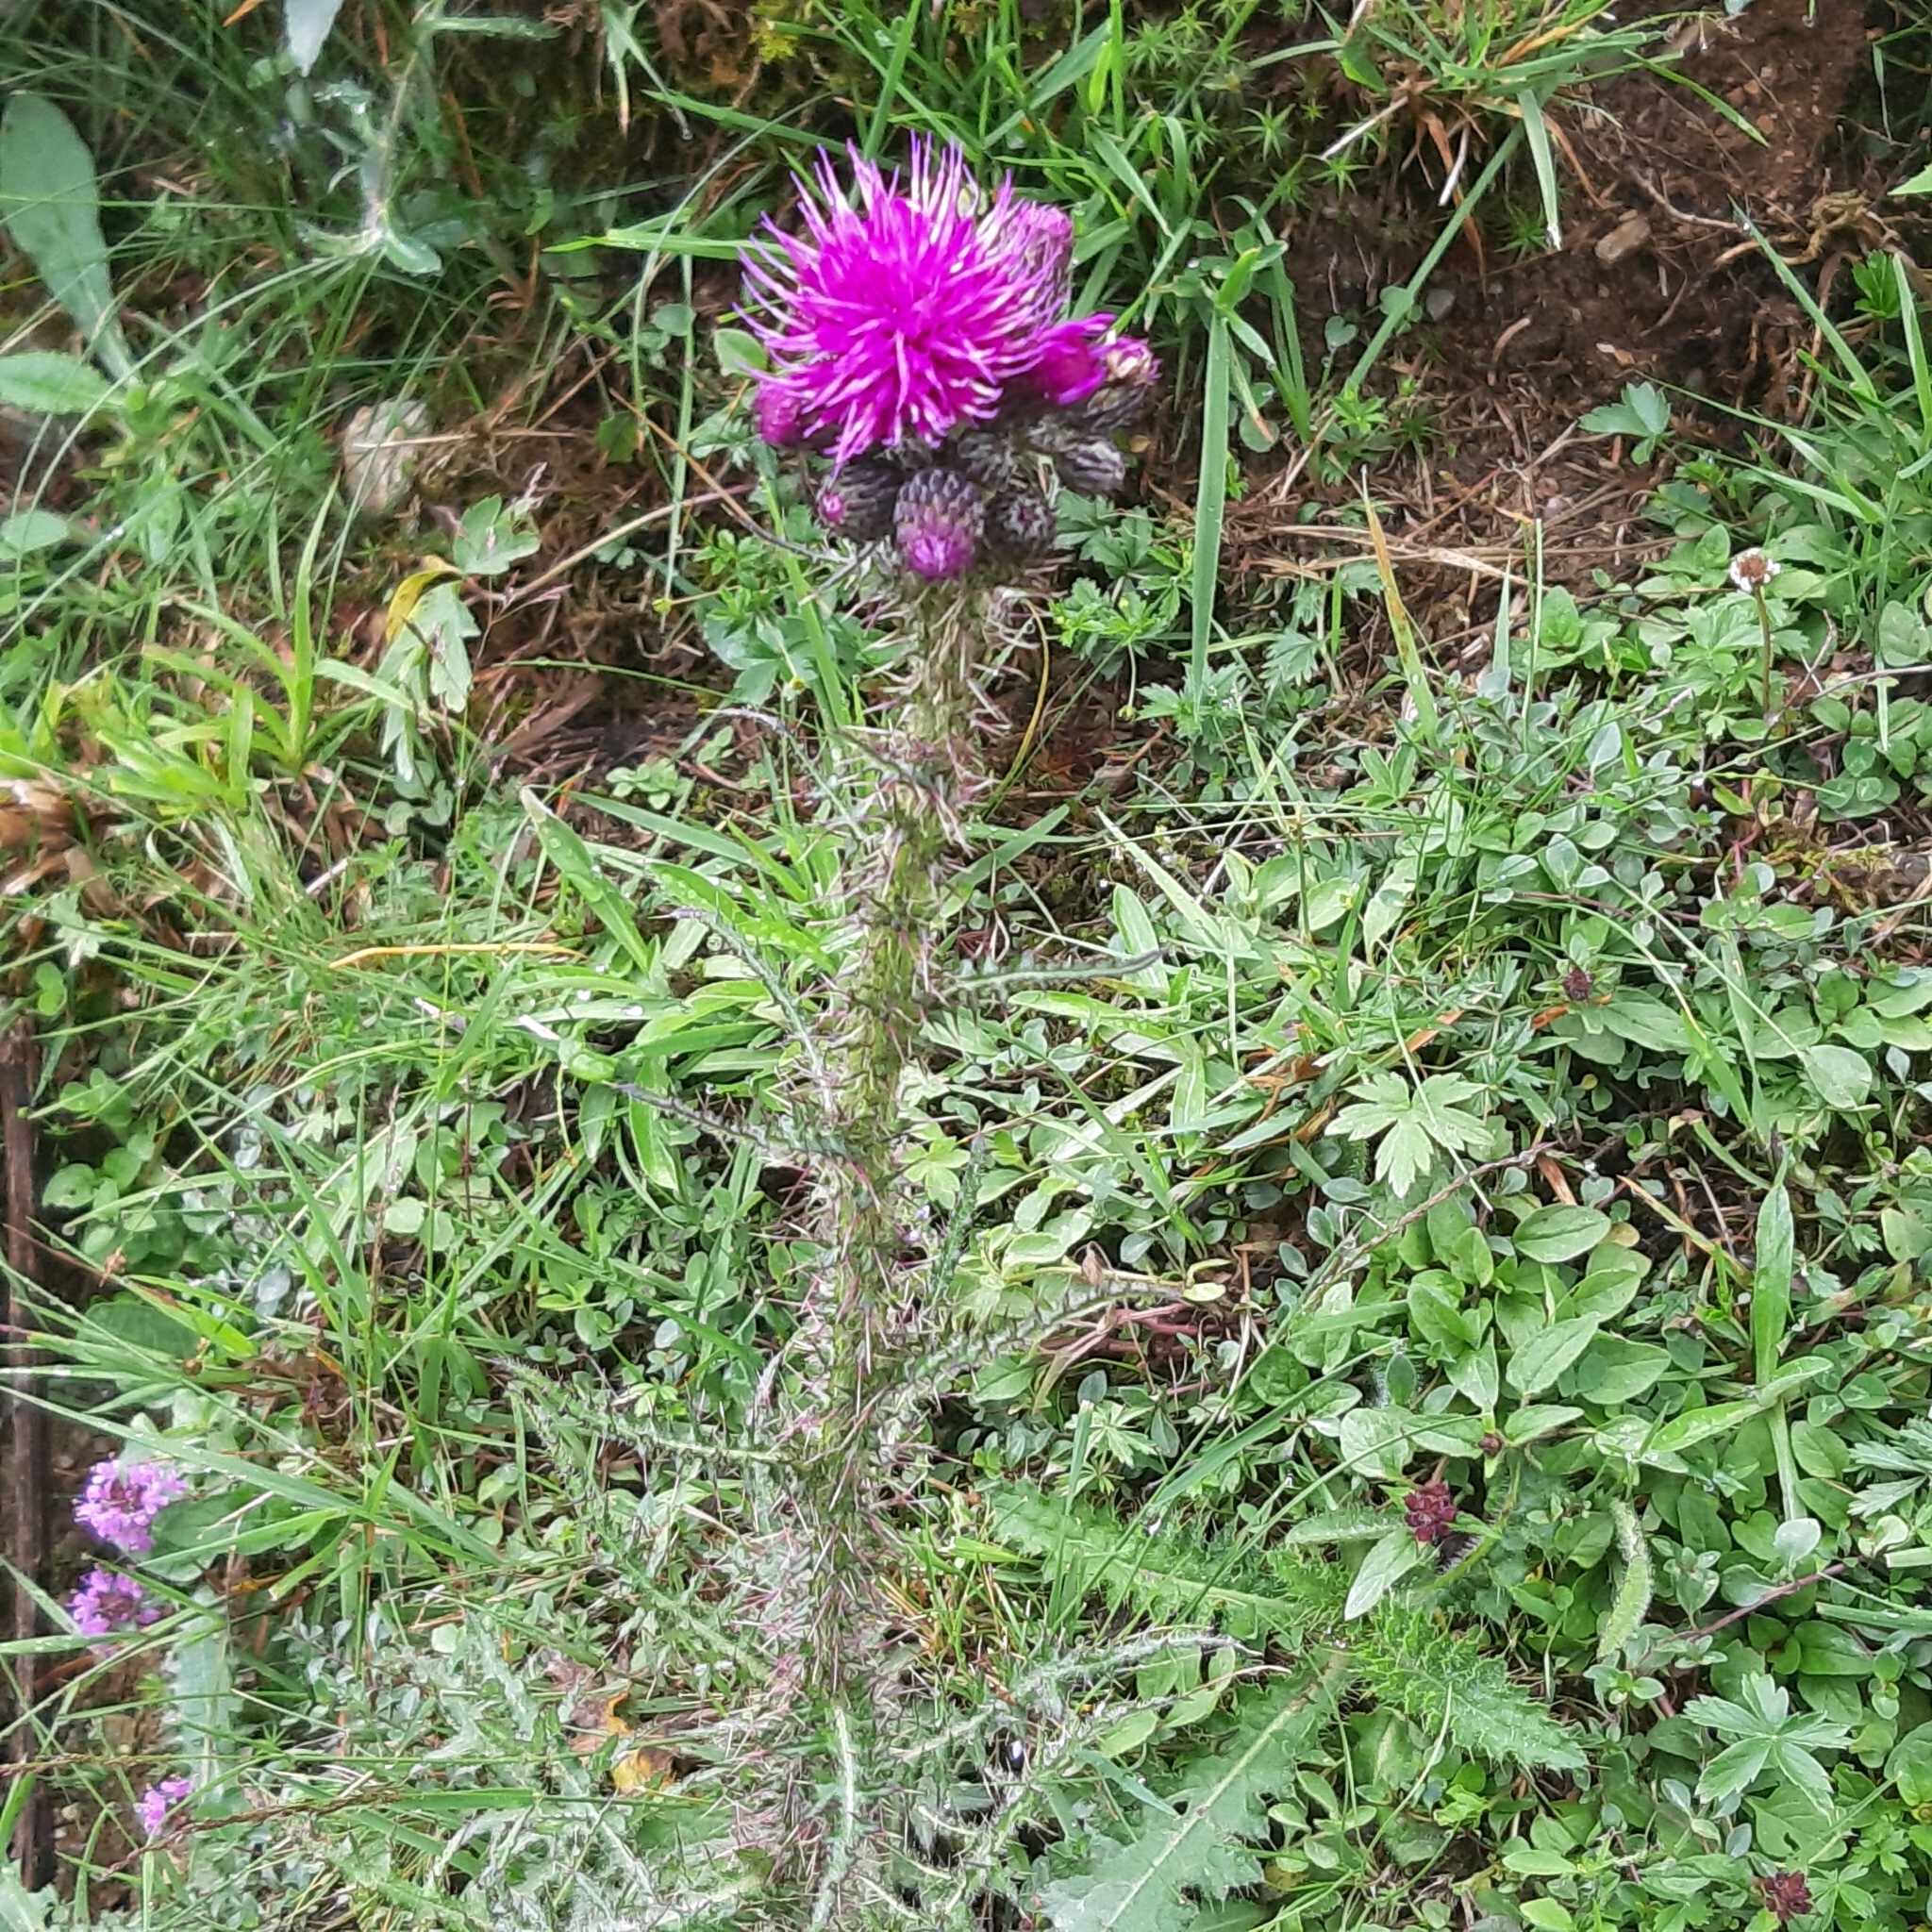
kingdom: Plantae
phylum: Tracheophyta
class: Magnoliopsida
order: Asterales
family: Asteraceae
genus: Cirsium
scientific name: Cirsium palustre
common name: Marsh thistle
